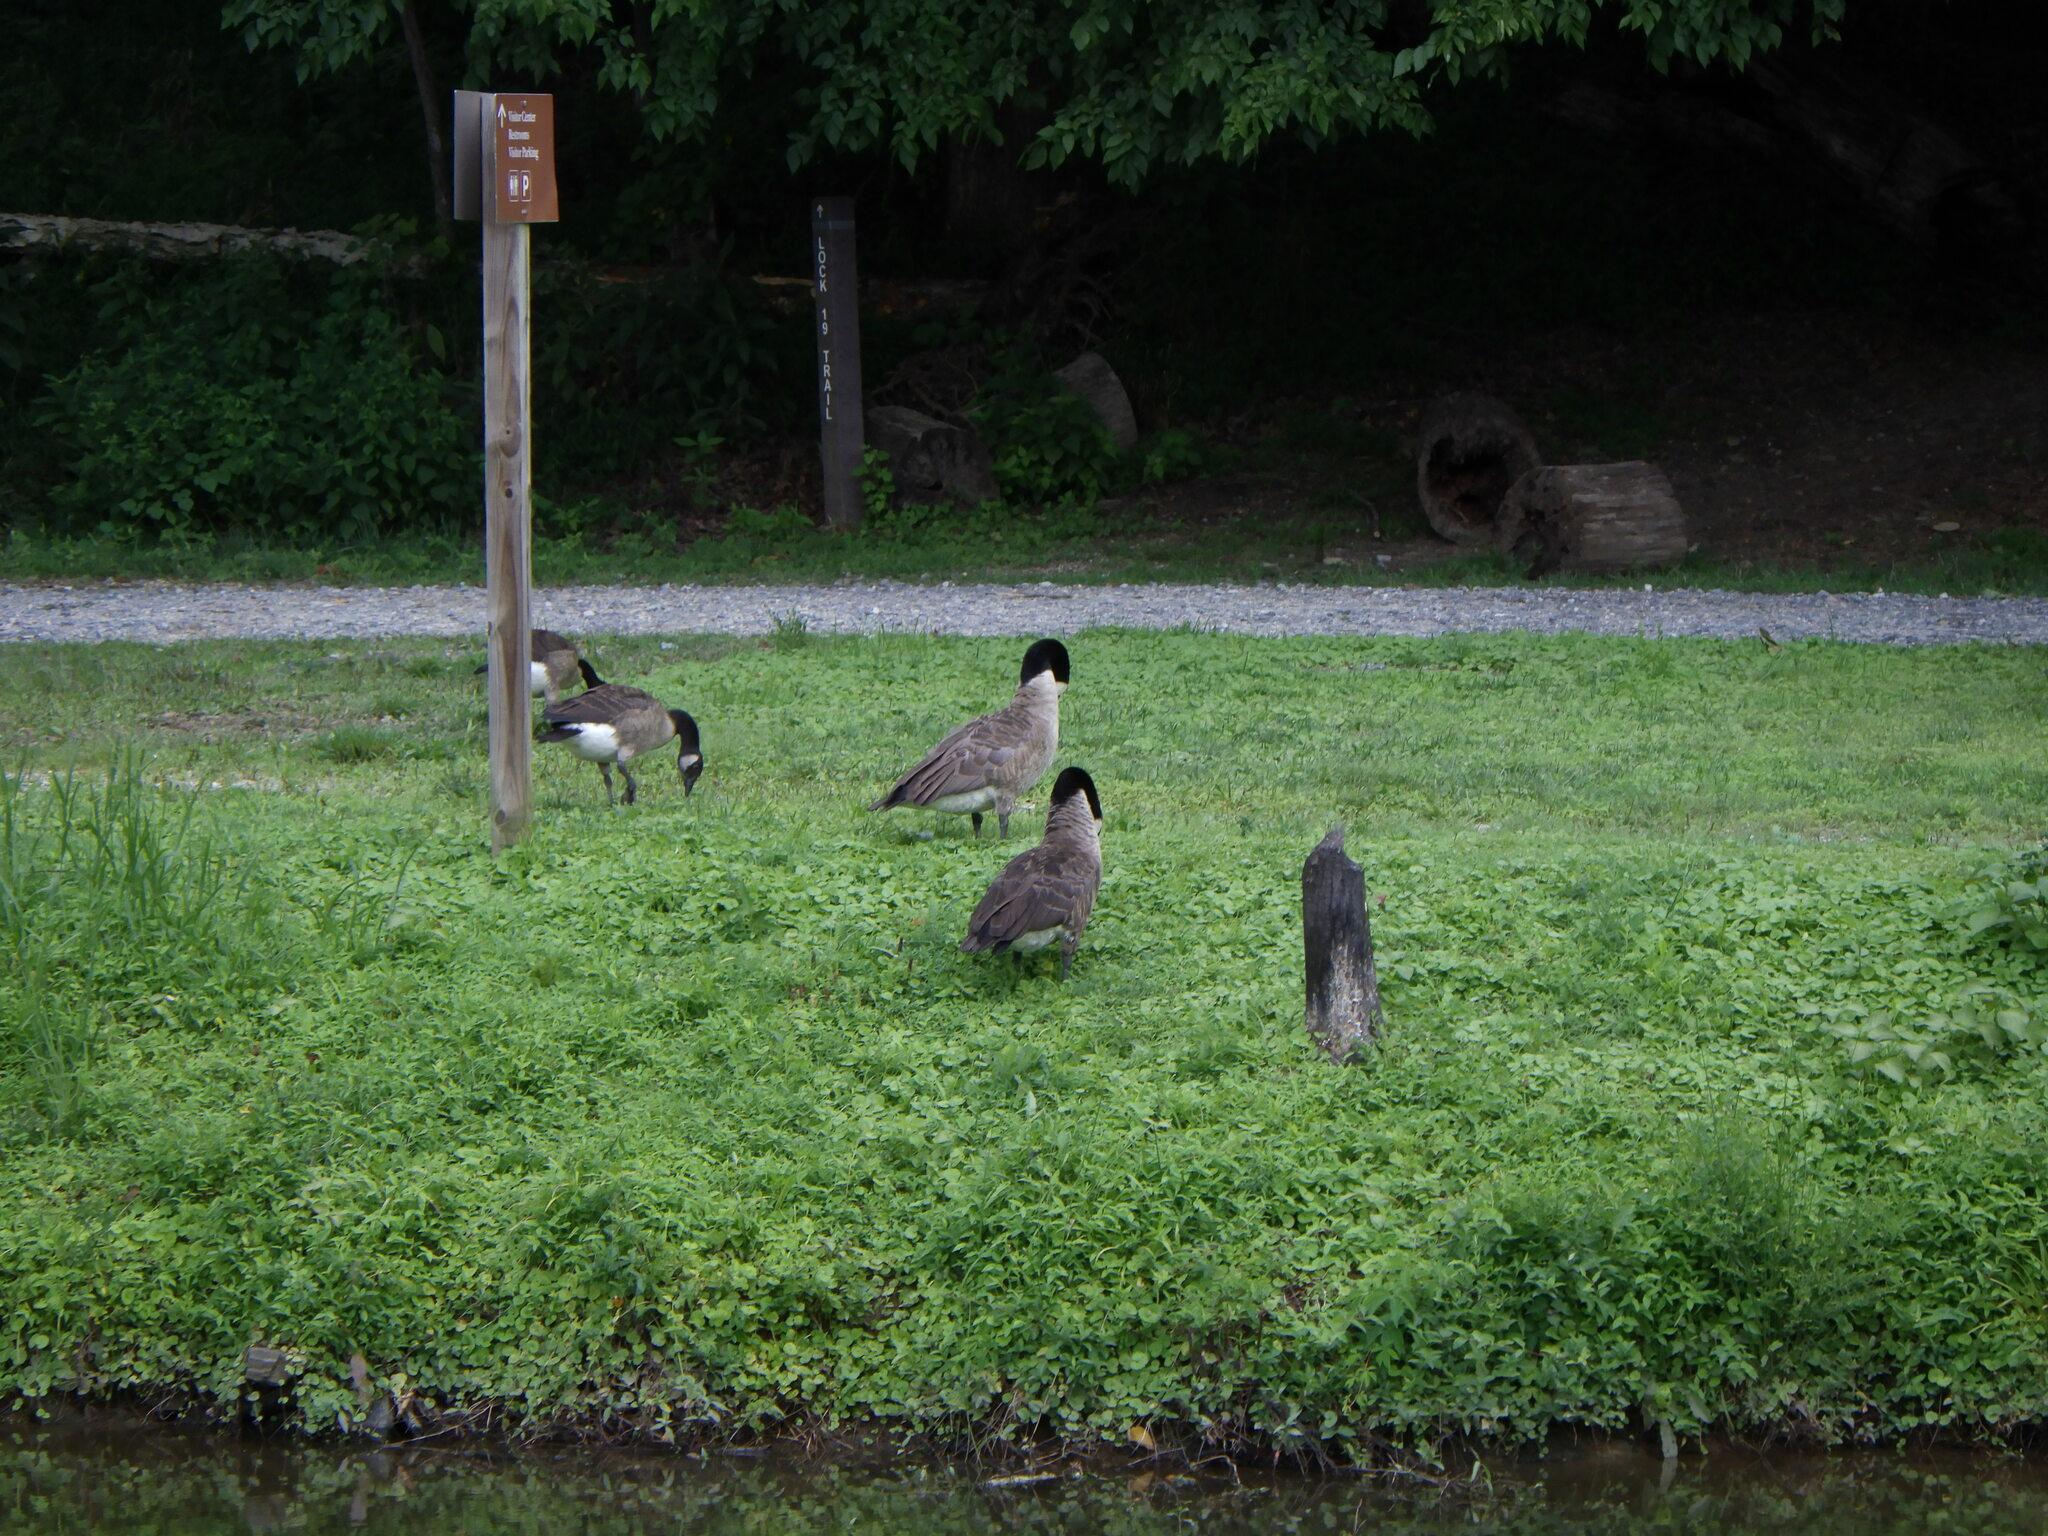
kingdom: Animalia
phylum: Chordata
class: Aves
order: Anseriformes
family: Anatidae
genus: Branta
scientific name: Branta canadensis
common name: Canada goose
